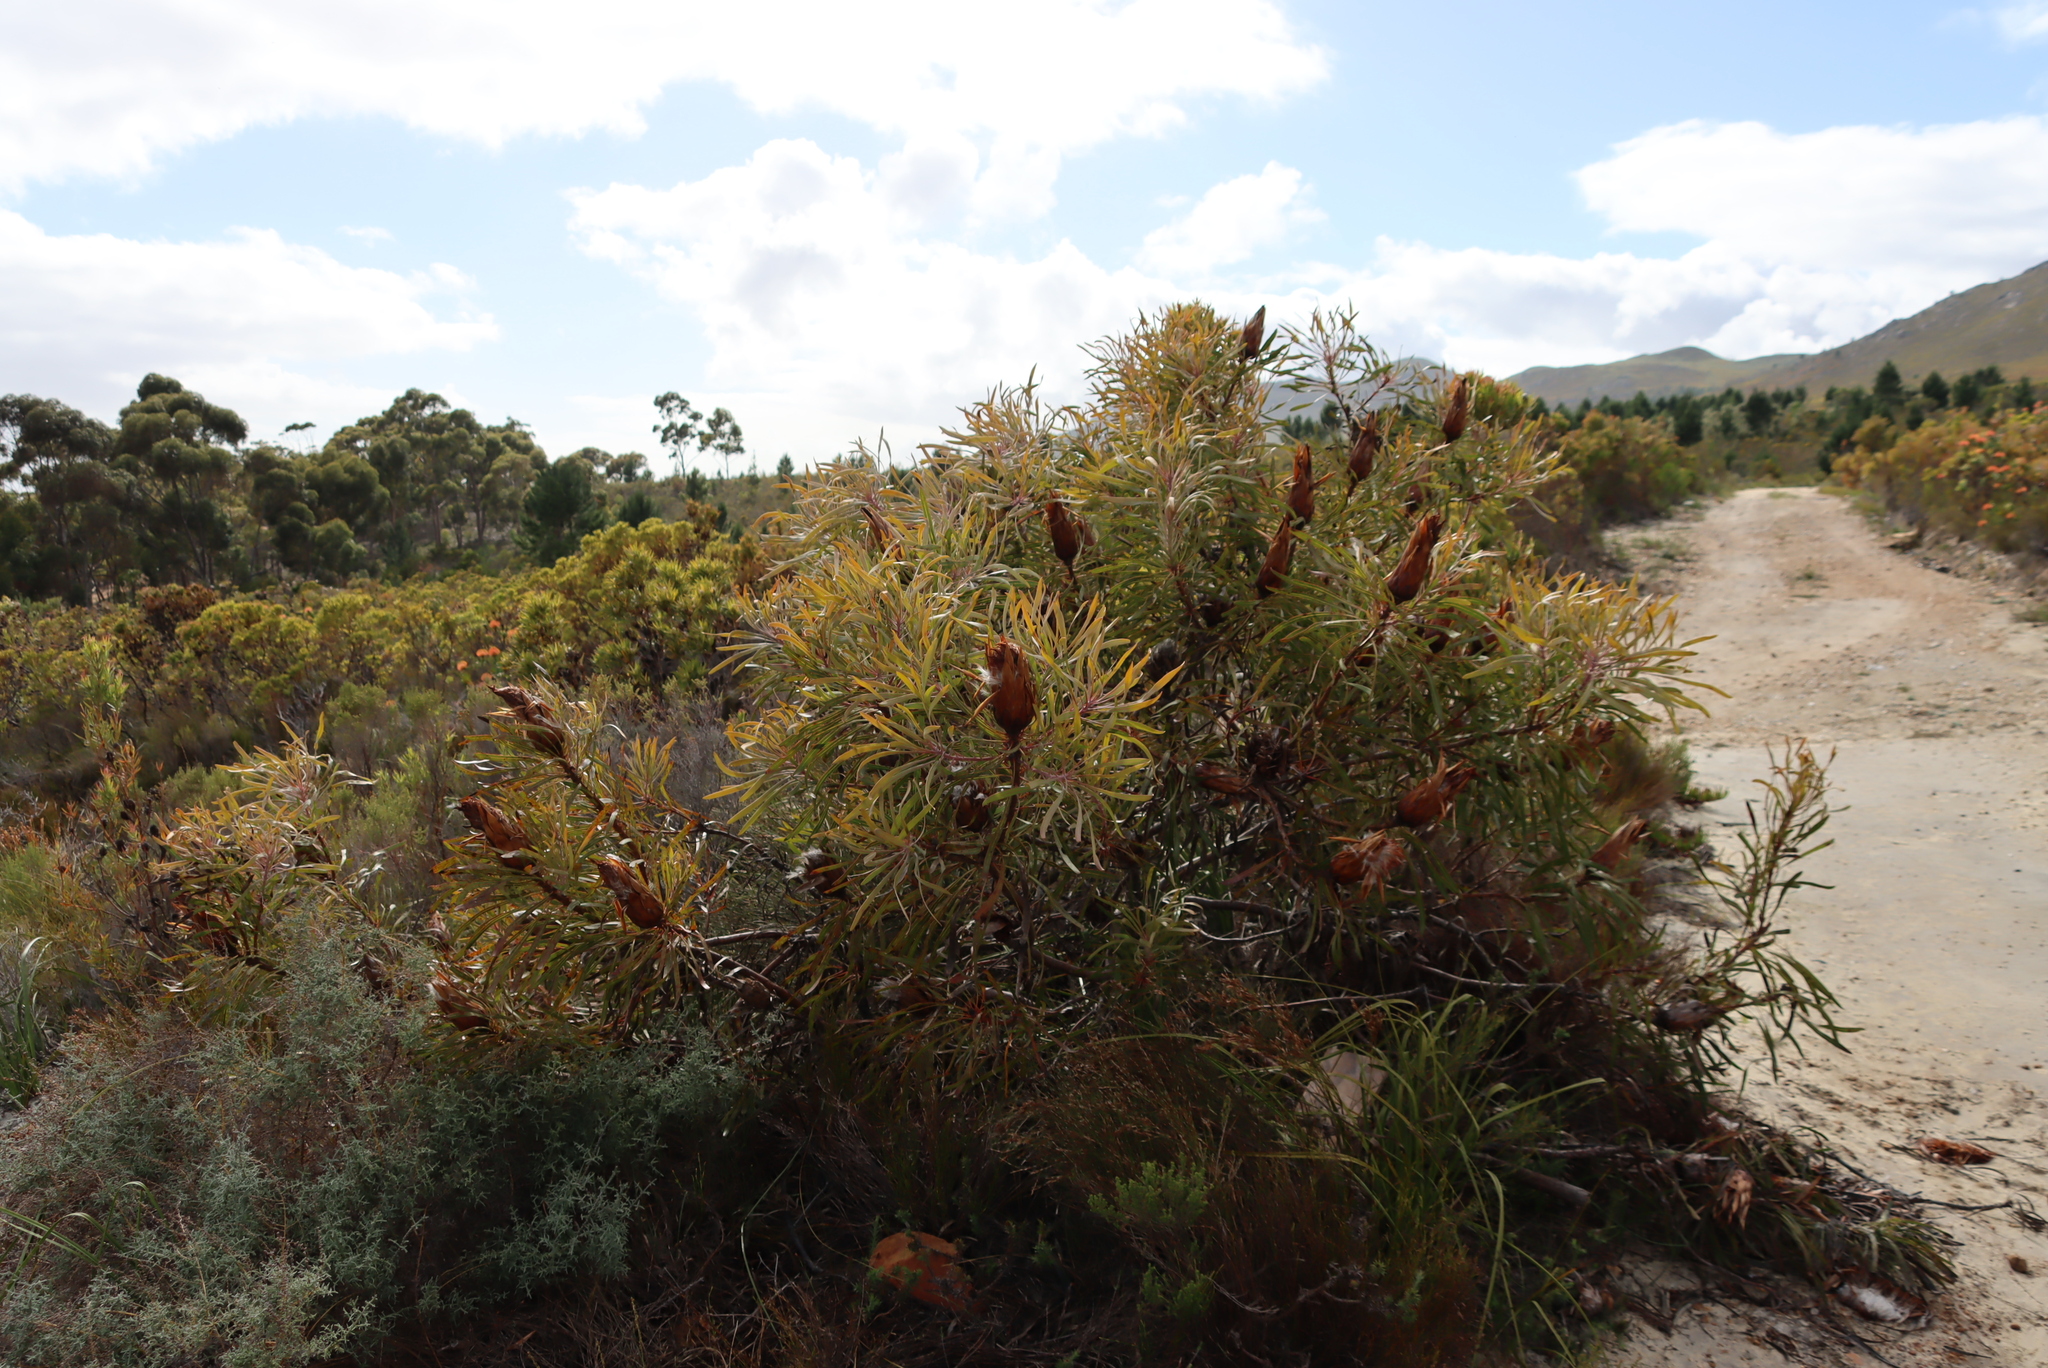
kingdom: Plantae
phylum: Tracheophyta
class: Magnoliopsida
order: Proteales
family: Proteaceae
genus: Protea
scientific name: Protea longifolia
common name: Long-leaf sugarbush
